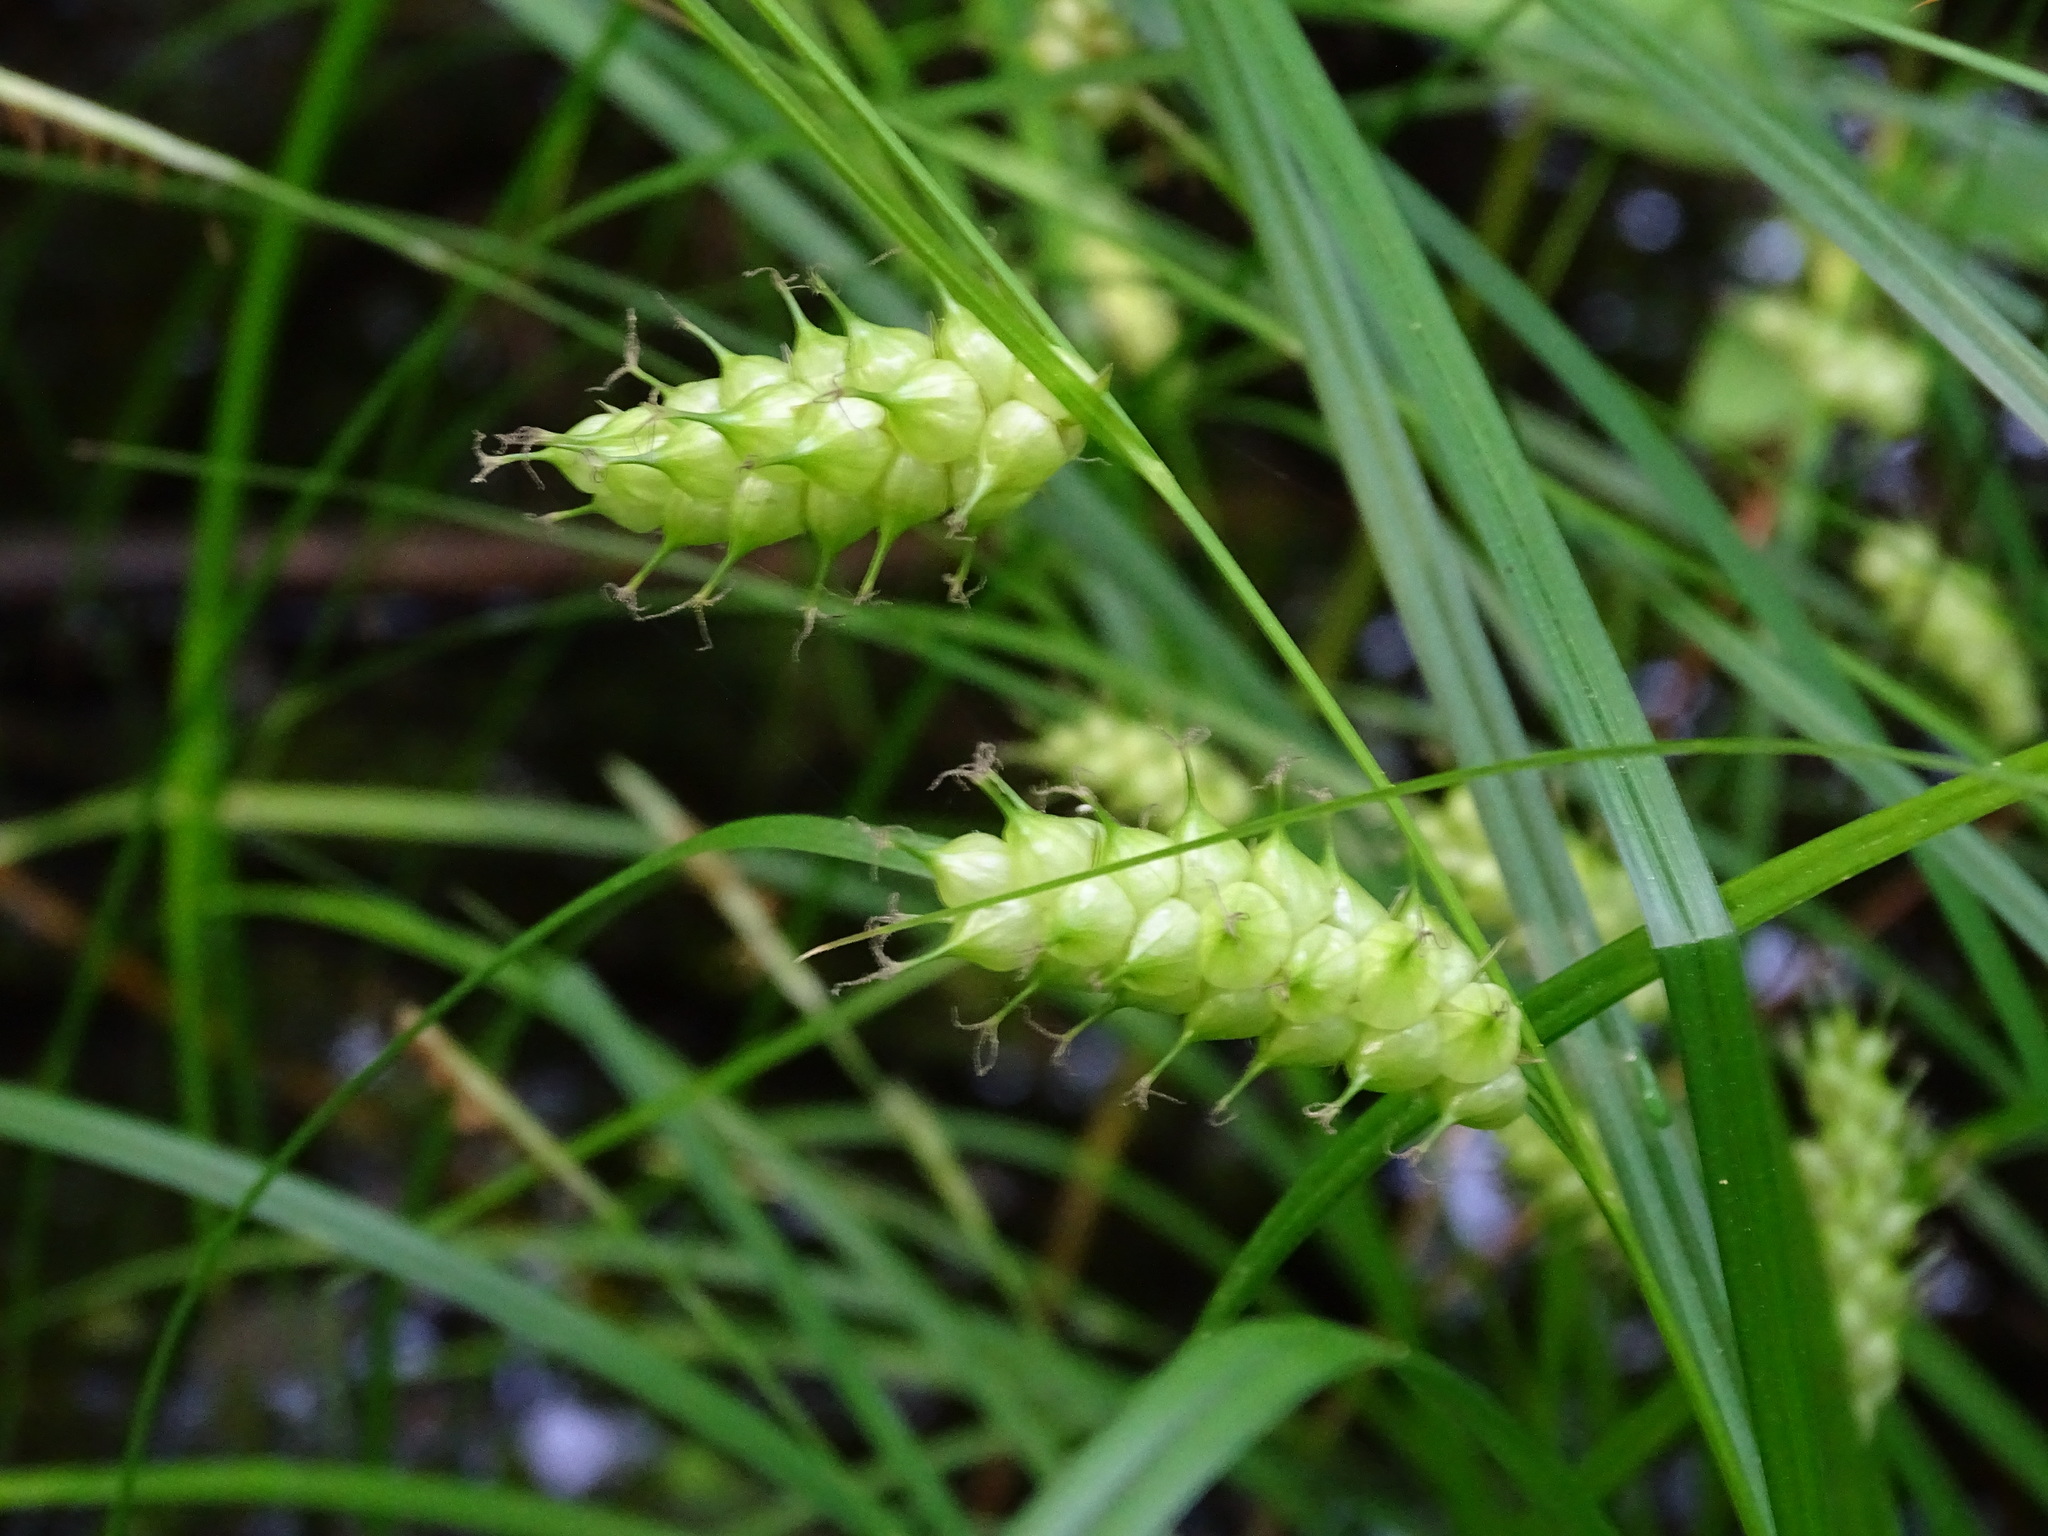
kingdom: Plantae
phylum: Tracheophyta
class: Liliopsida
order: Poales
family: Cyperaceae
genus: Carex
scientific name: Carex tuckermanii
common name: Tuckerman's sedge
